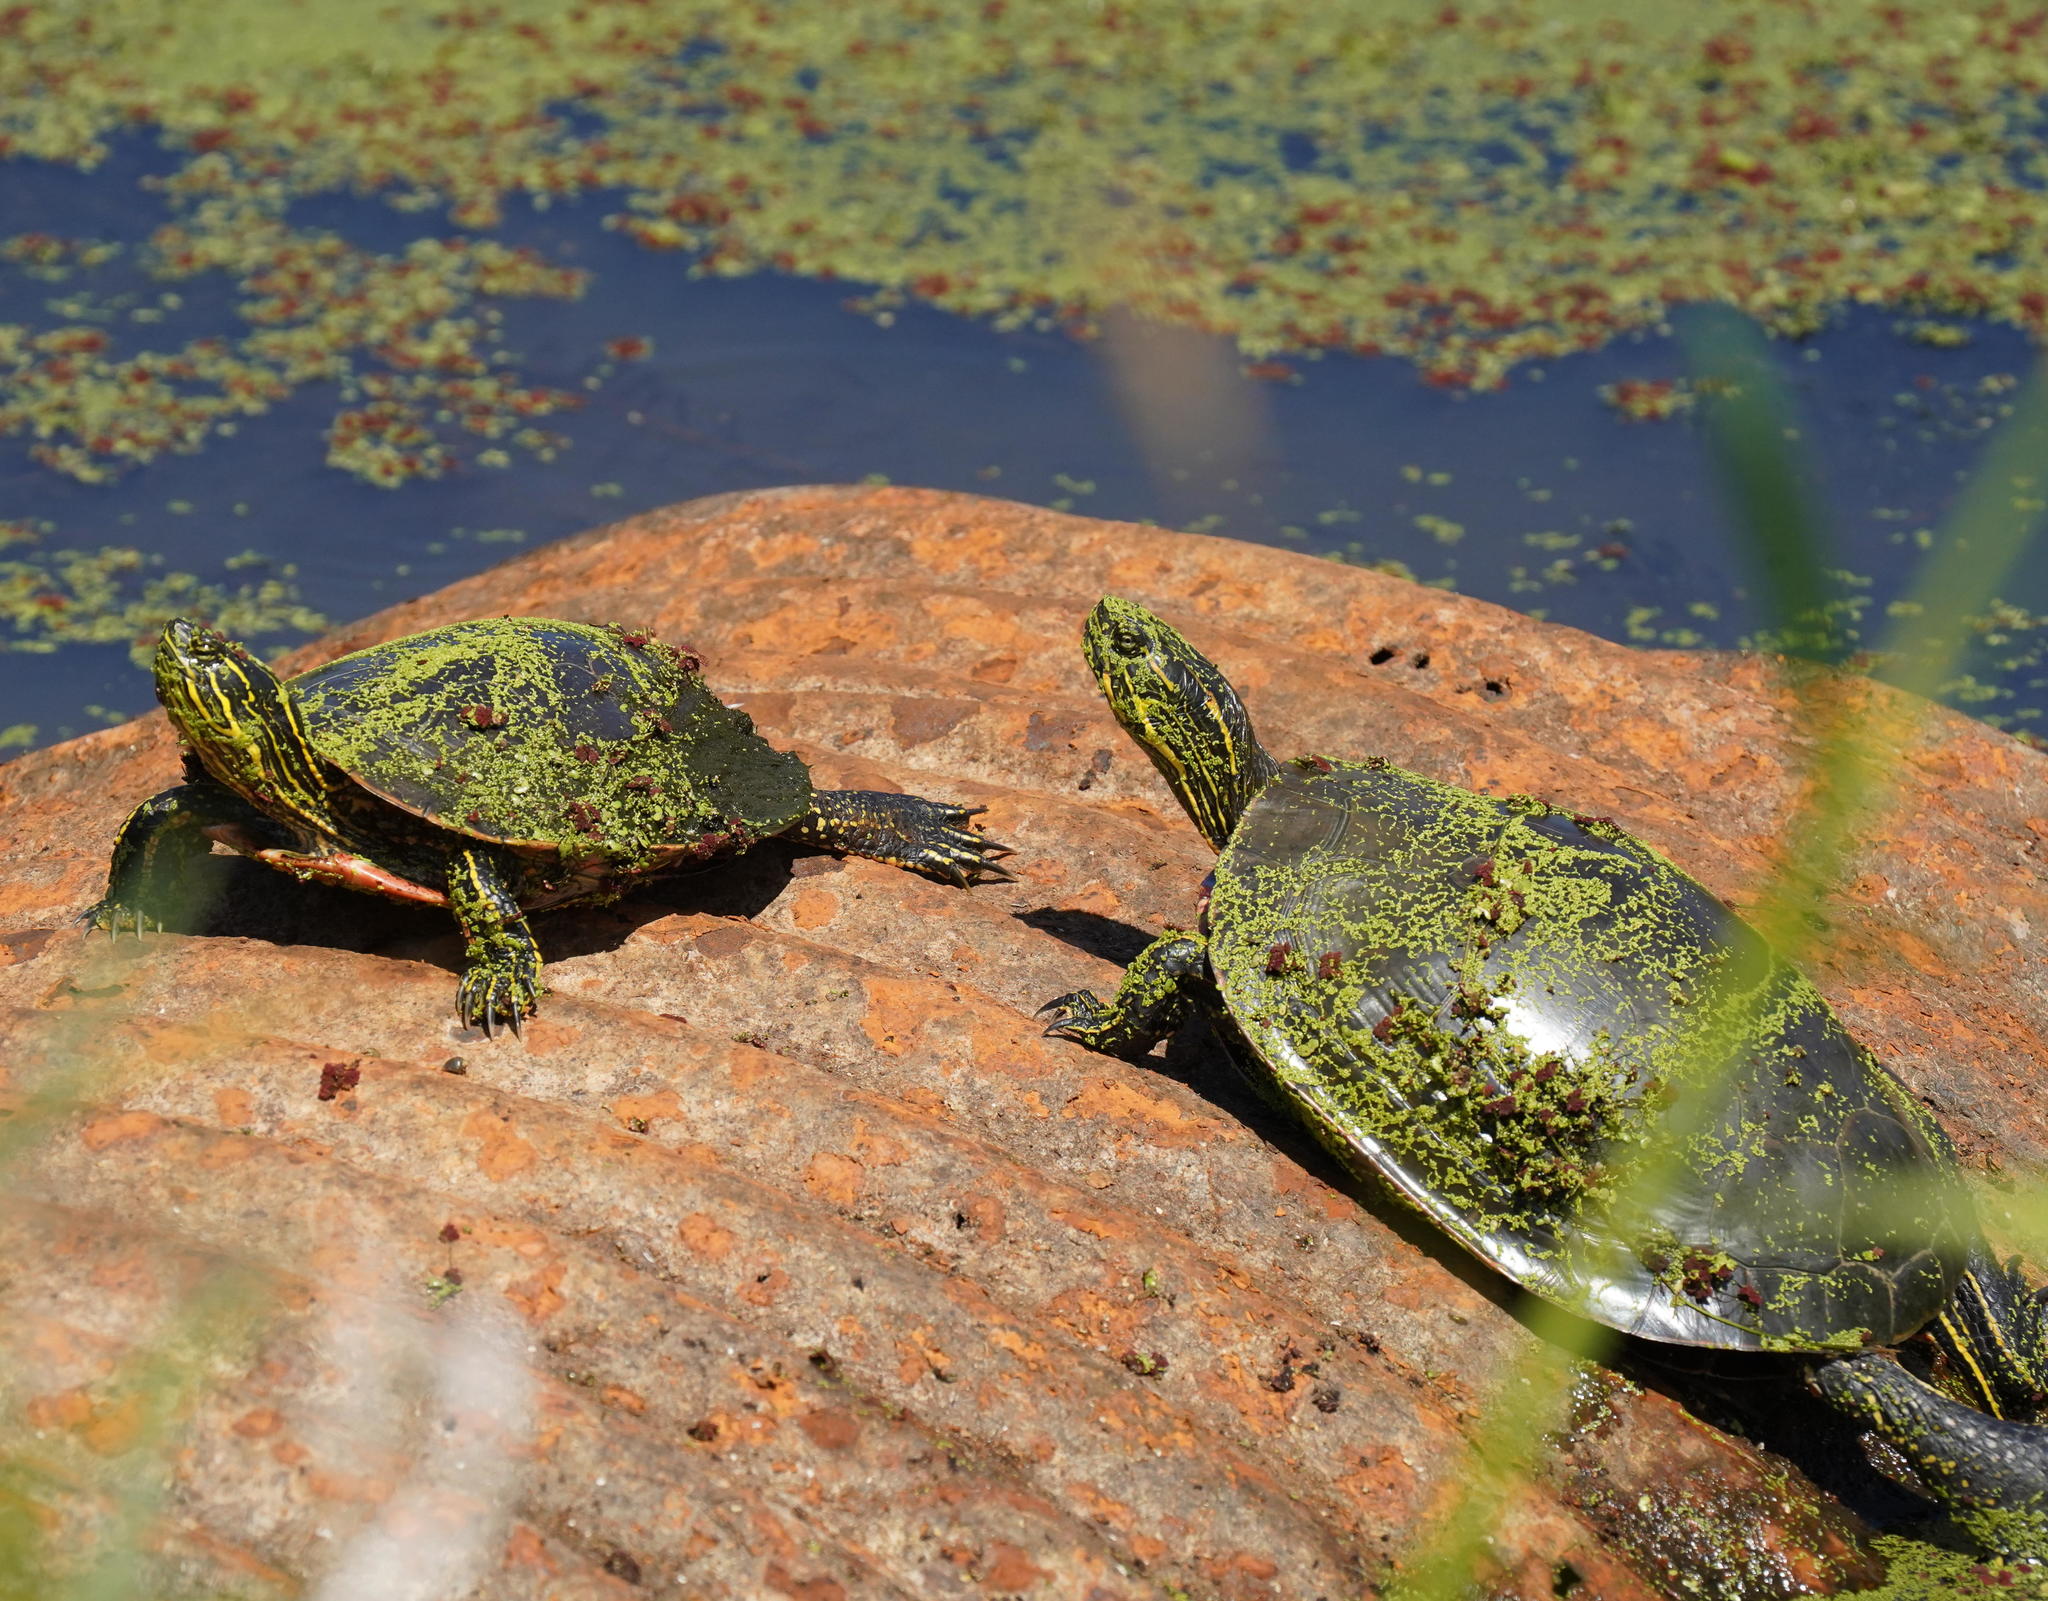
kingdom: Animalia
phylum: Chordata
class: Testudines
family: Emydidae
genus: Chrysemys
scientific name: Chrysemys picta
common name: Painted turtle
